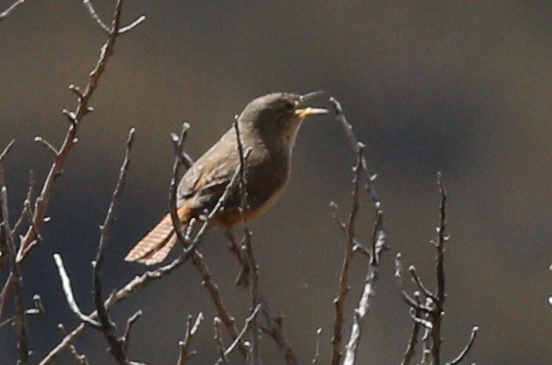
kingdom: Animalia
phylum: Chordata
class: Aves
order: Passeriformes
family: Troglodytidae
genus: Troglodytes
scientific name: Troglodytes aedon
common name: House wren
